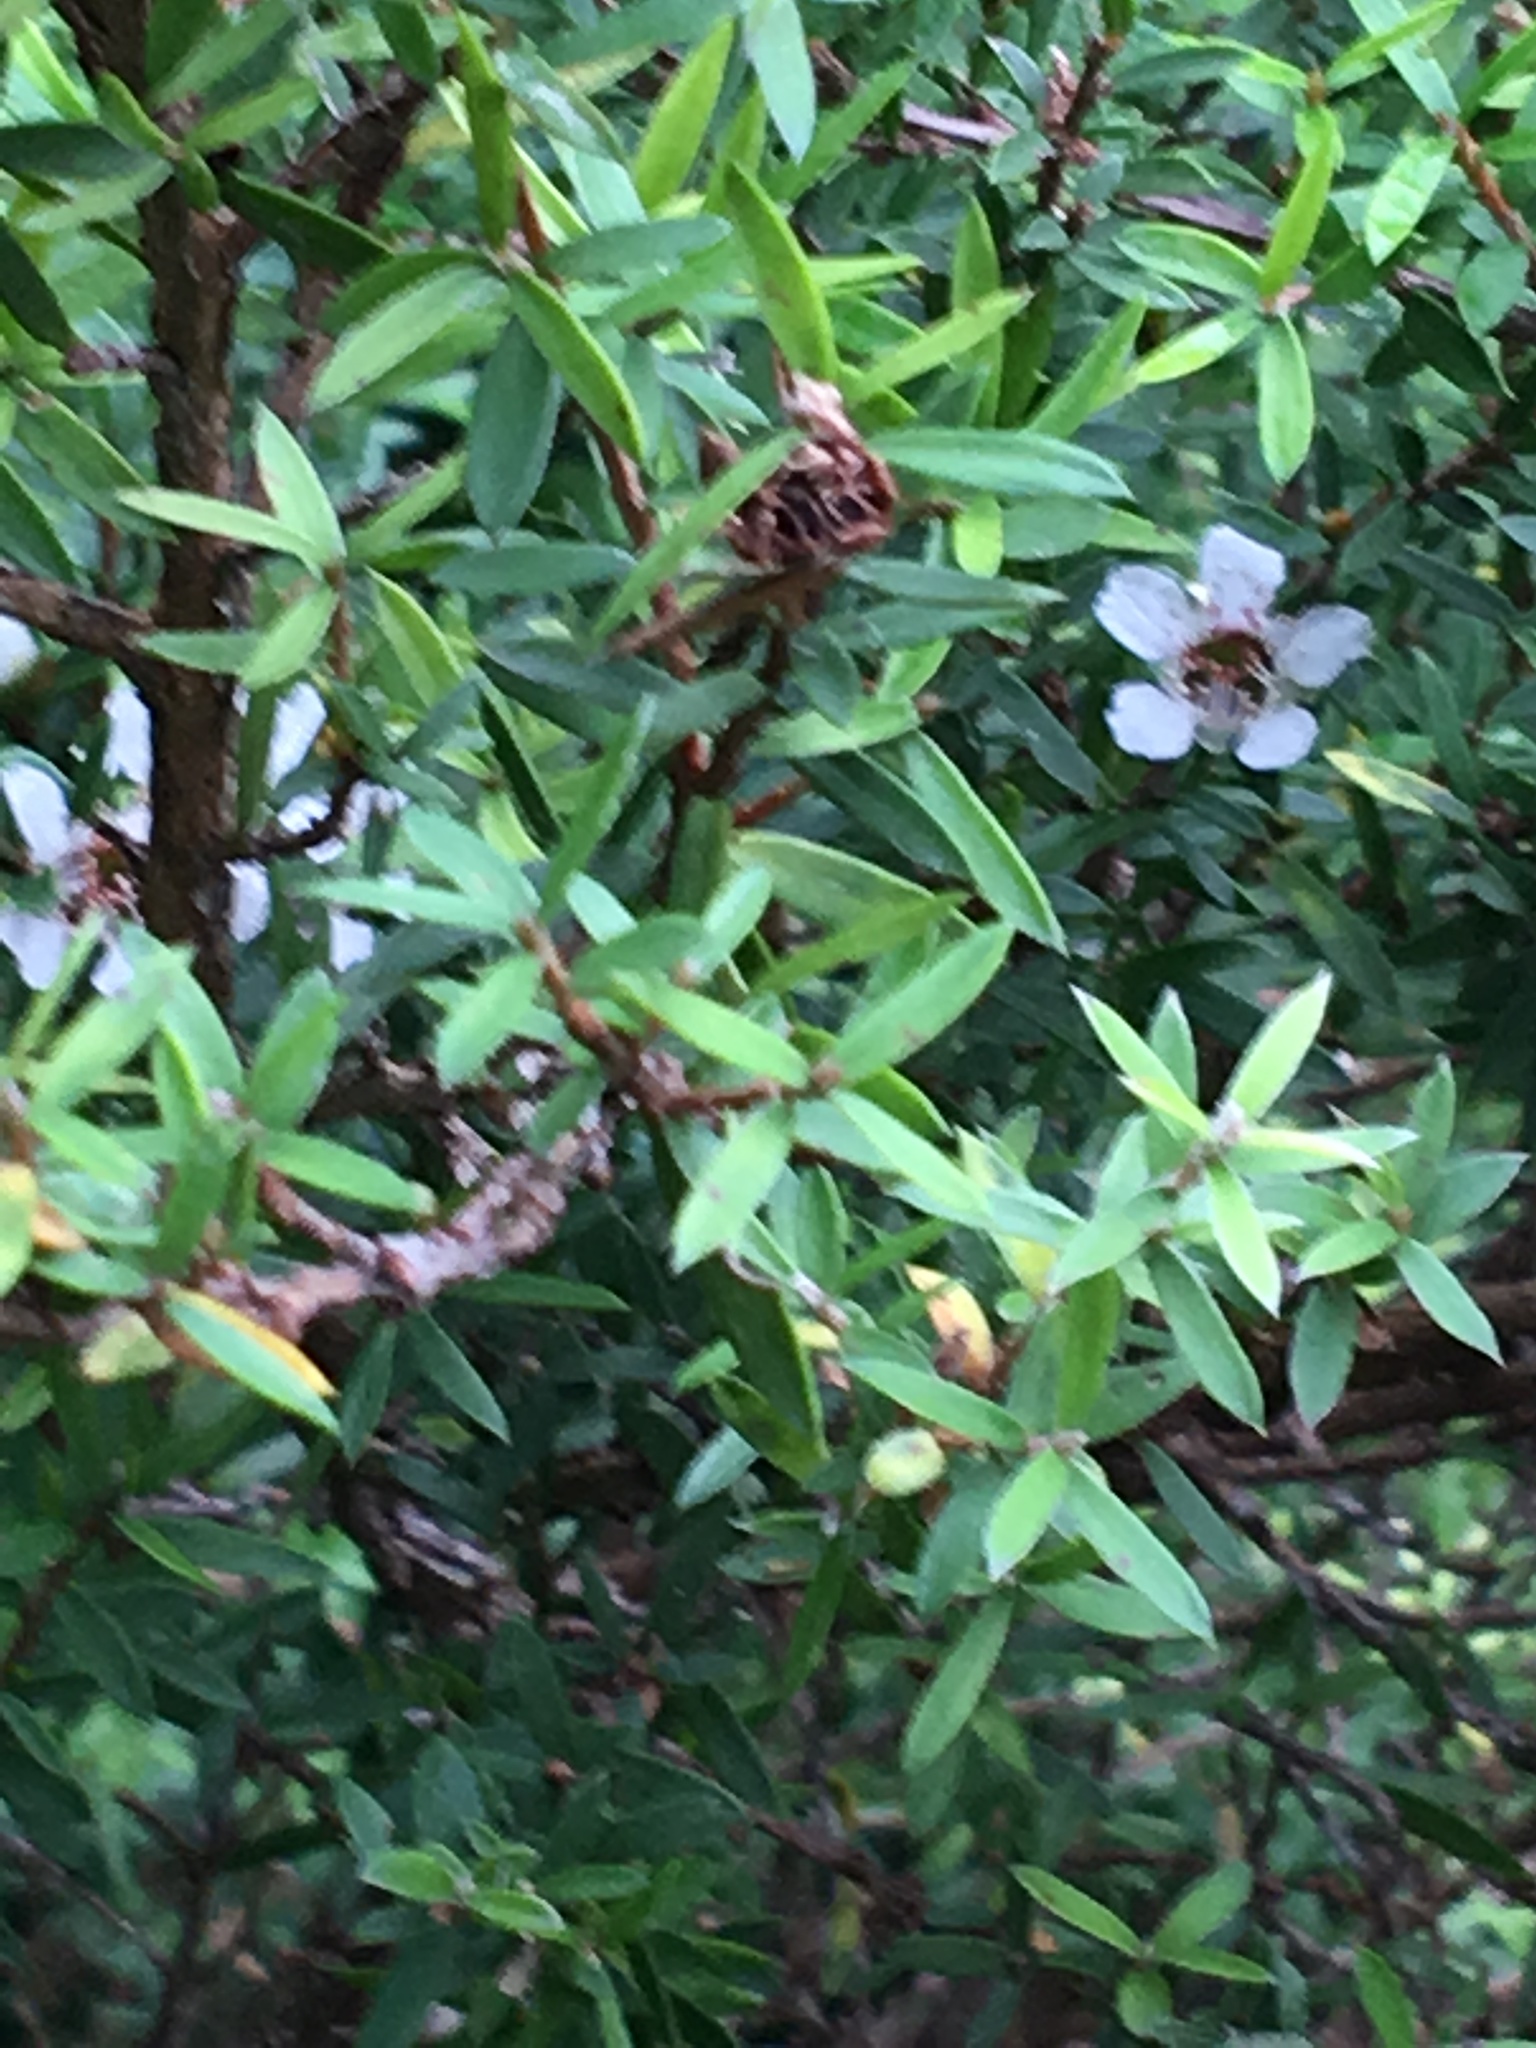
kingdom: Plantae
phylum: Tracheophyta
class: Magnoliopsida
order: Myrtales
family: Myrtaceae
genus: Leptospermum
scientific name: Leptospermum scoparium
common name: Broom tea-tree
